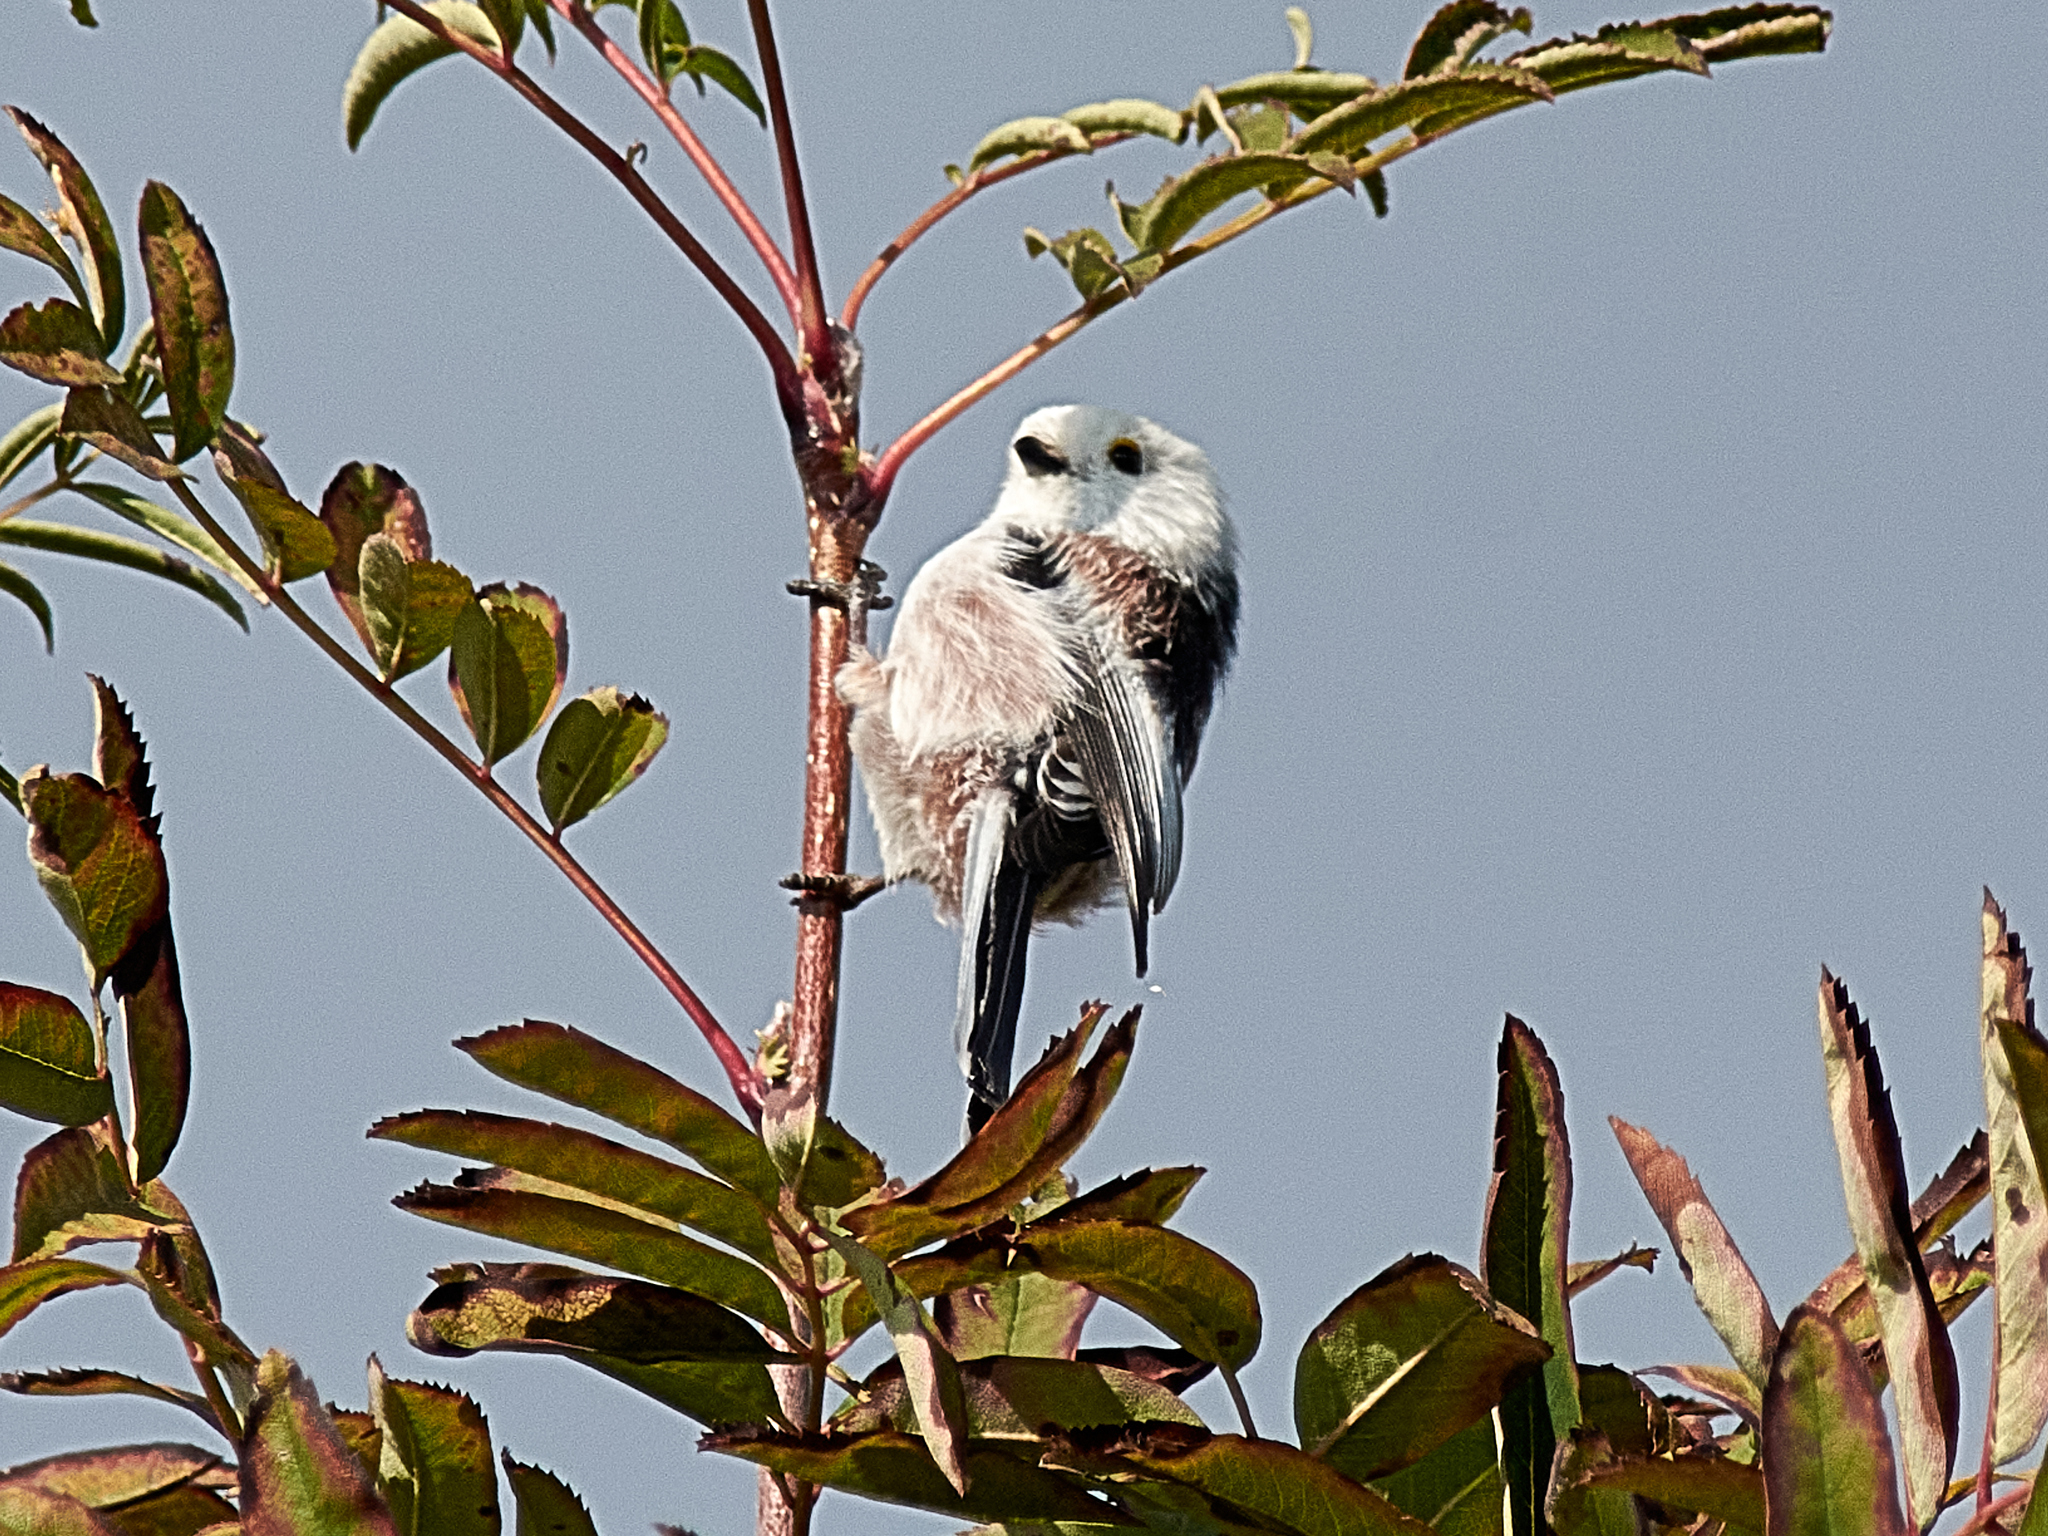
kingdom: Animalia
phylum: Chordata
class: Aves
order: Passeriformes
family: Aegithalidae
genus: Aegithalos
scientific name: Aegithalos caudatus
